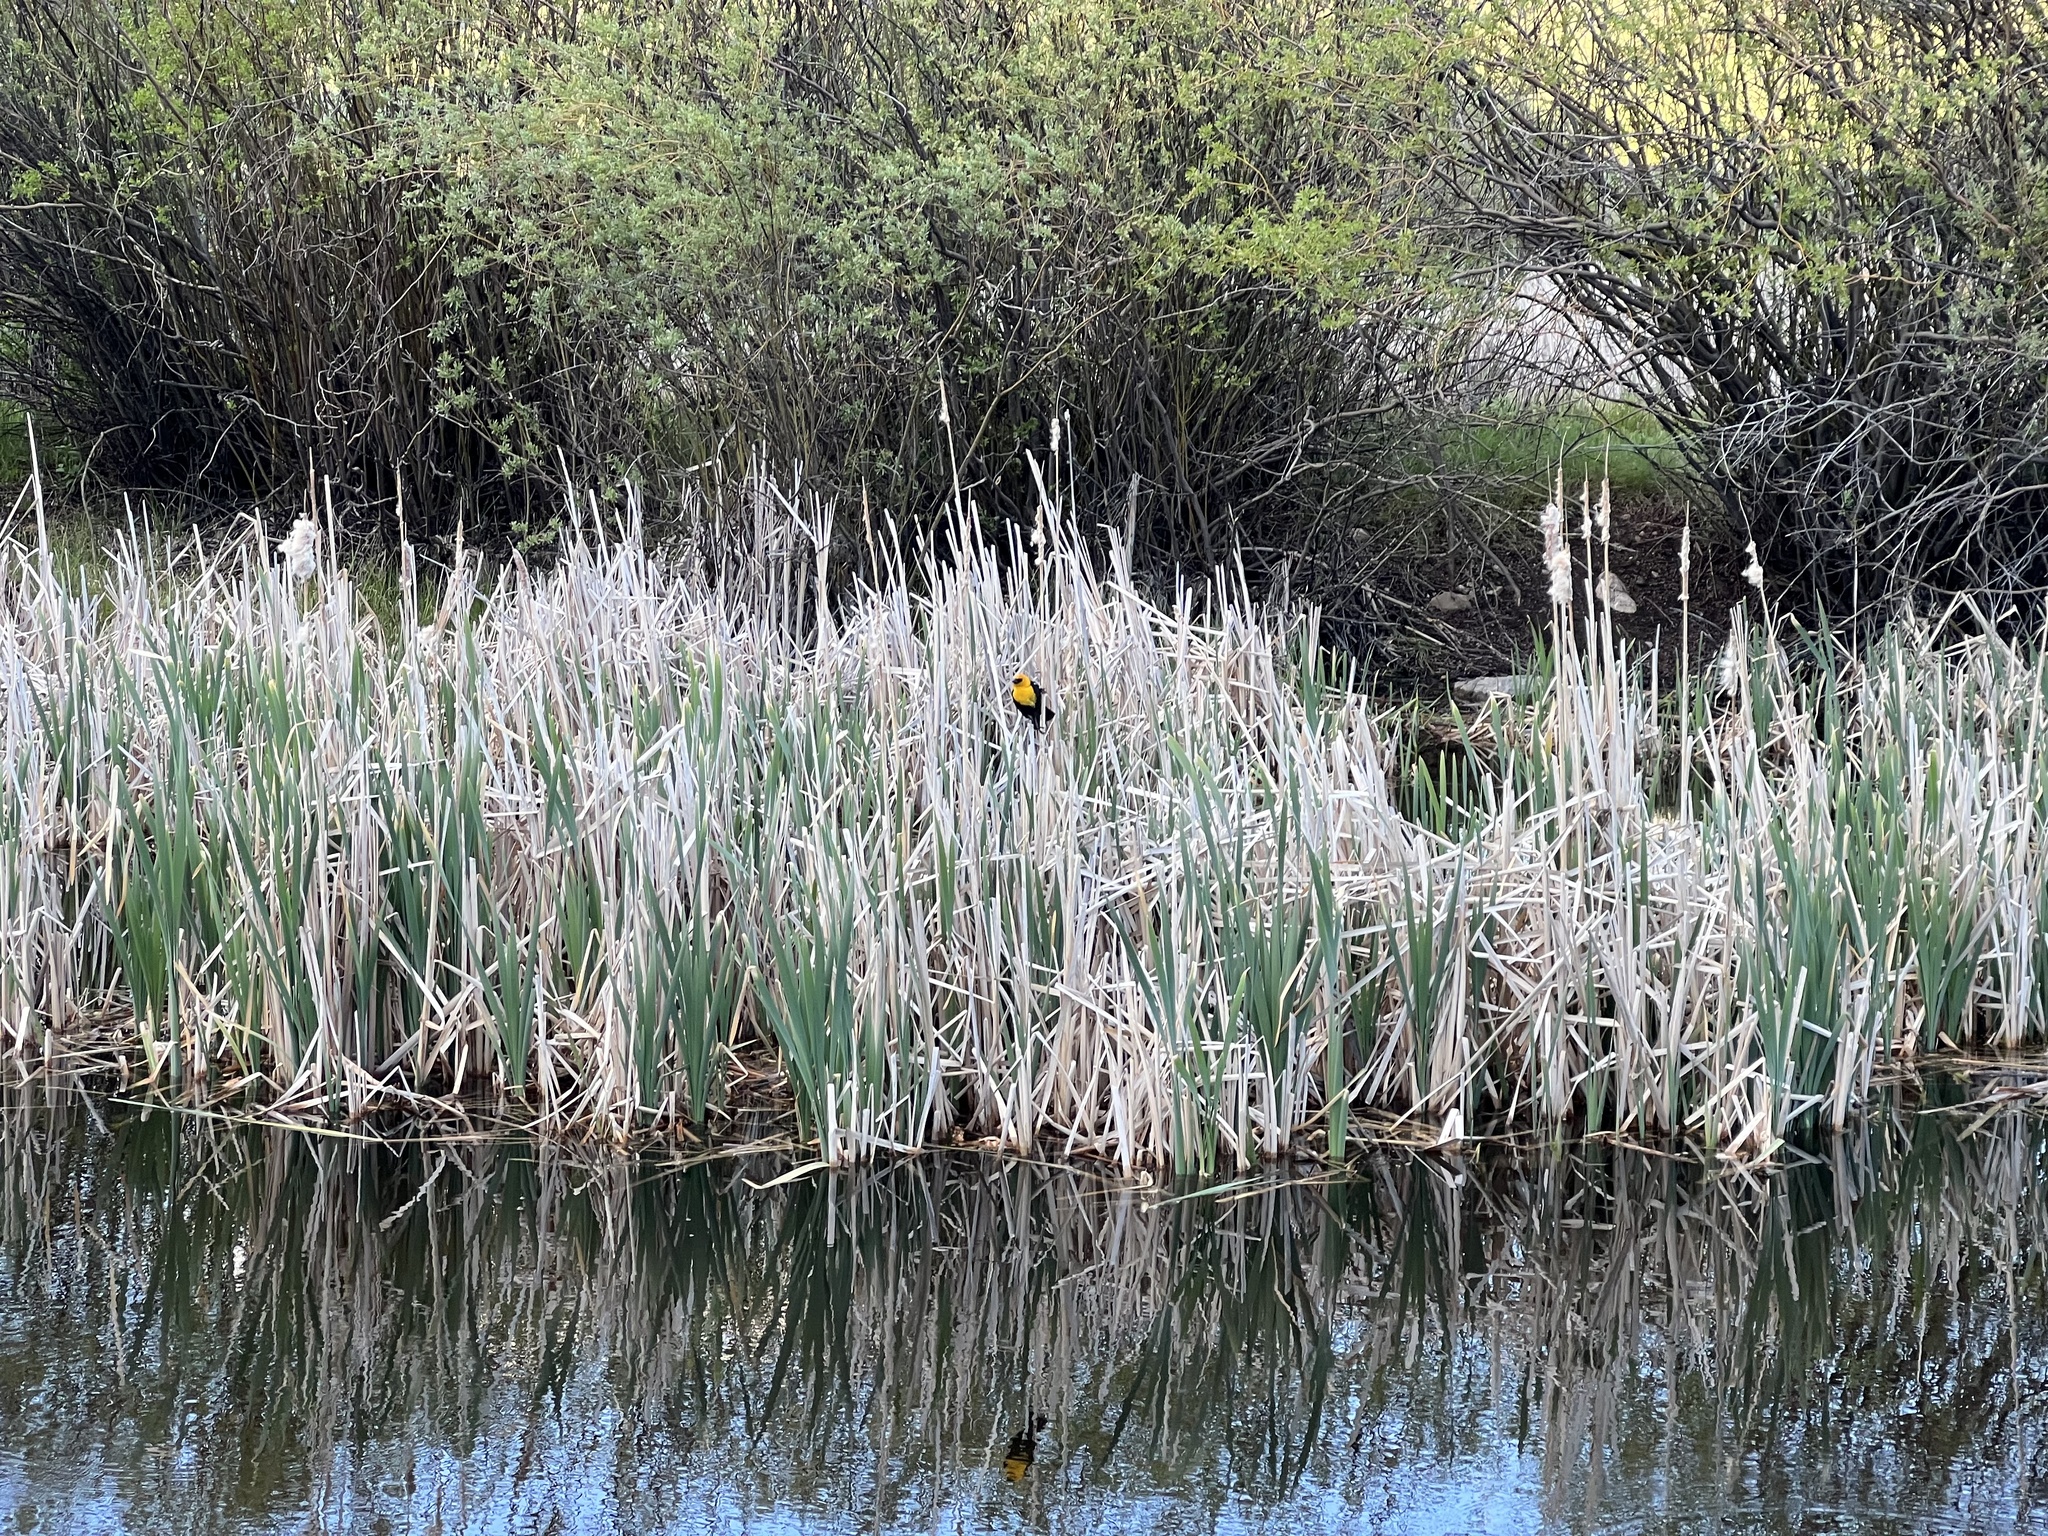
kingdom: Animalia
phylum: Chordata
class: Aves
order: Passeriformes
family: Icteridae
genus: Xanthocephalus
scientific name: Xanthocephalus xanthocephalus
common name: Yellow-headed blackbird
